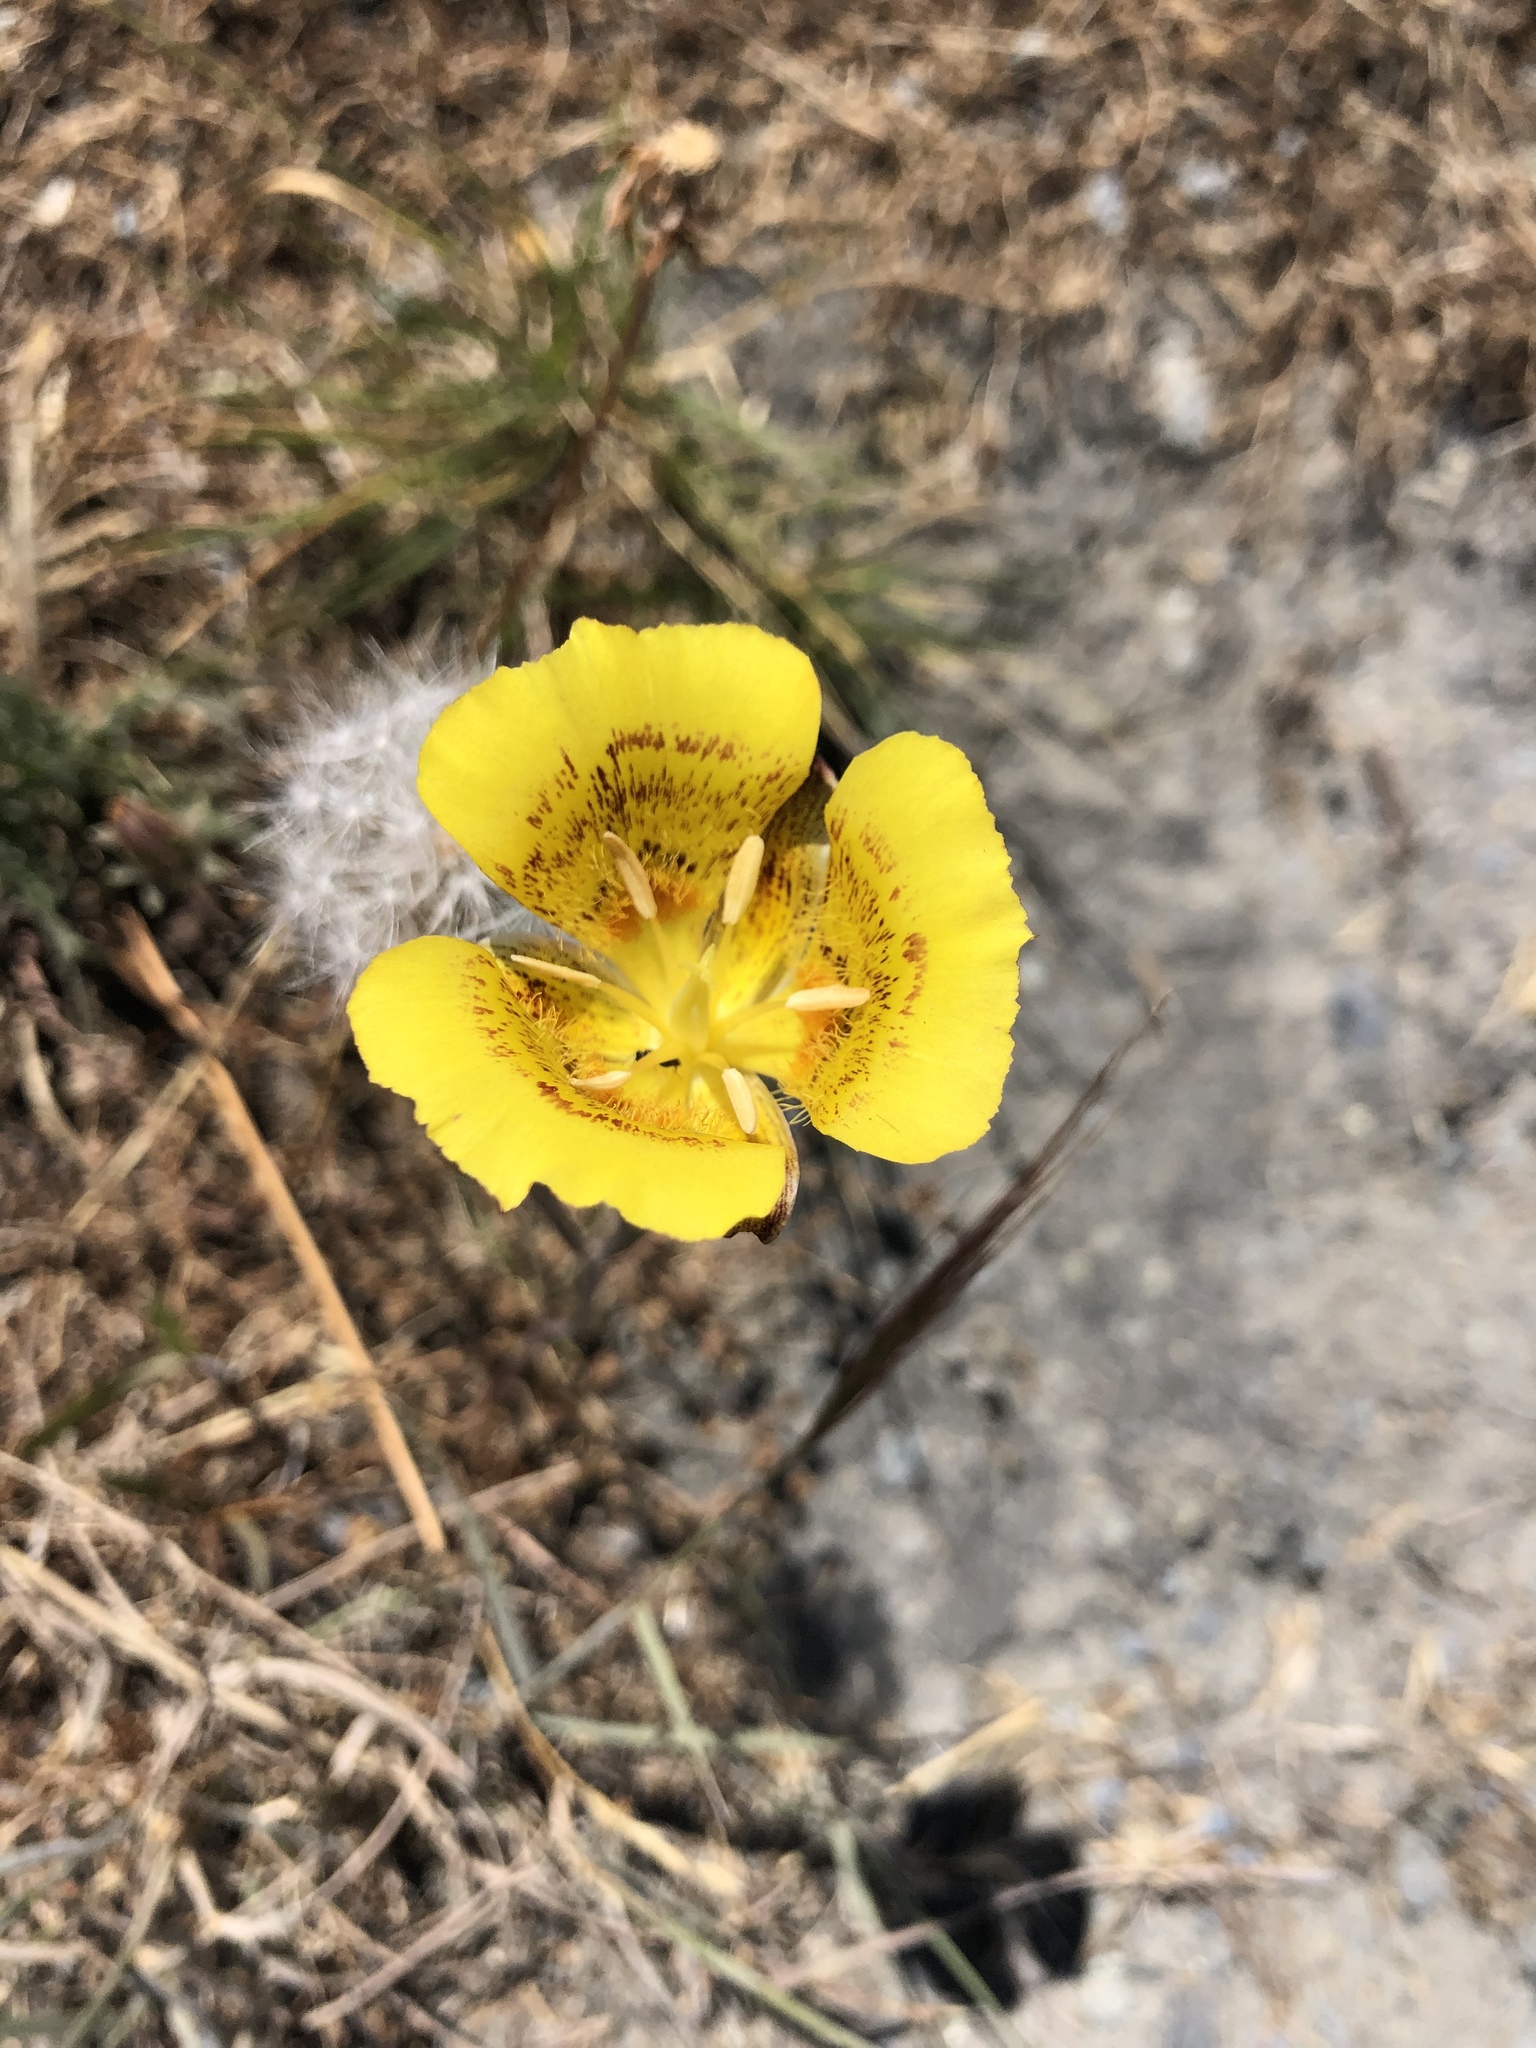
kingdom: Plantae
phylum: Tracheophyta
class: Liliopsida
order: Liliales
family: Liliaceae
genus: Calochortus
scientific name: Calochortus luteus
